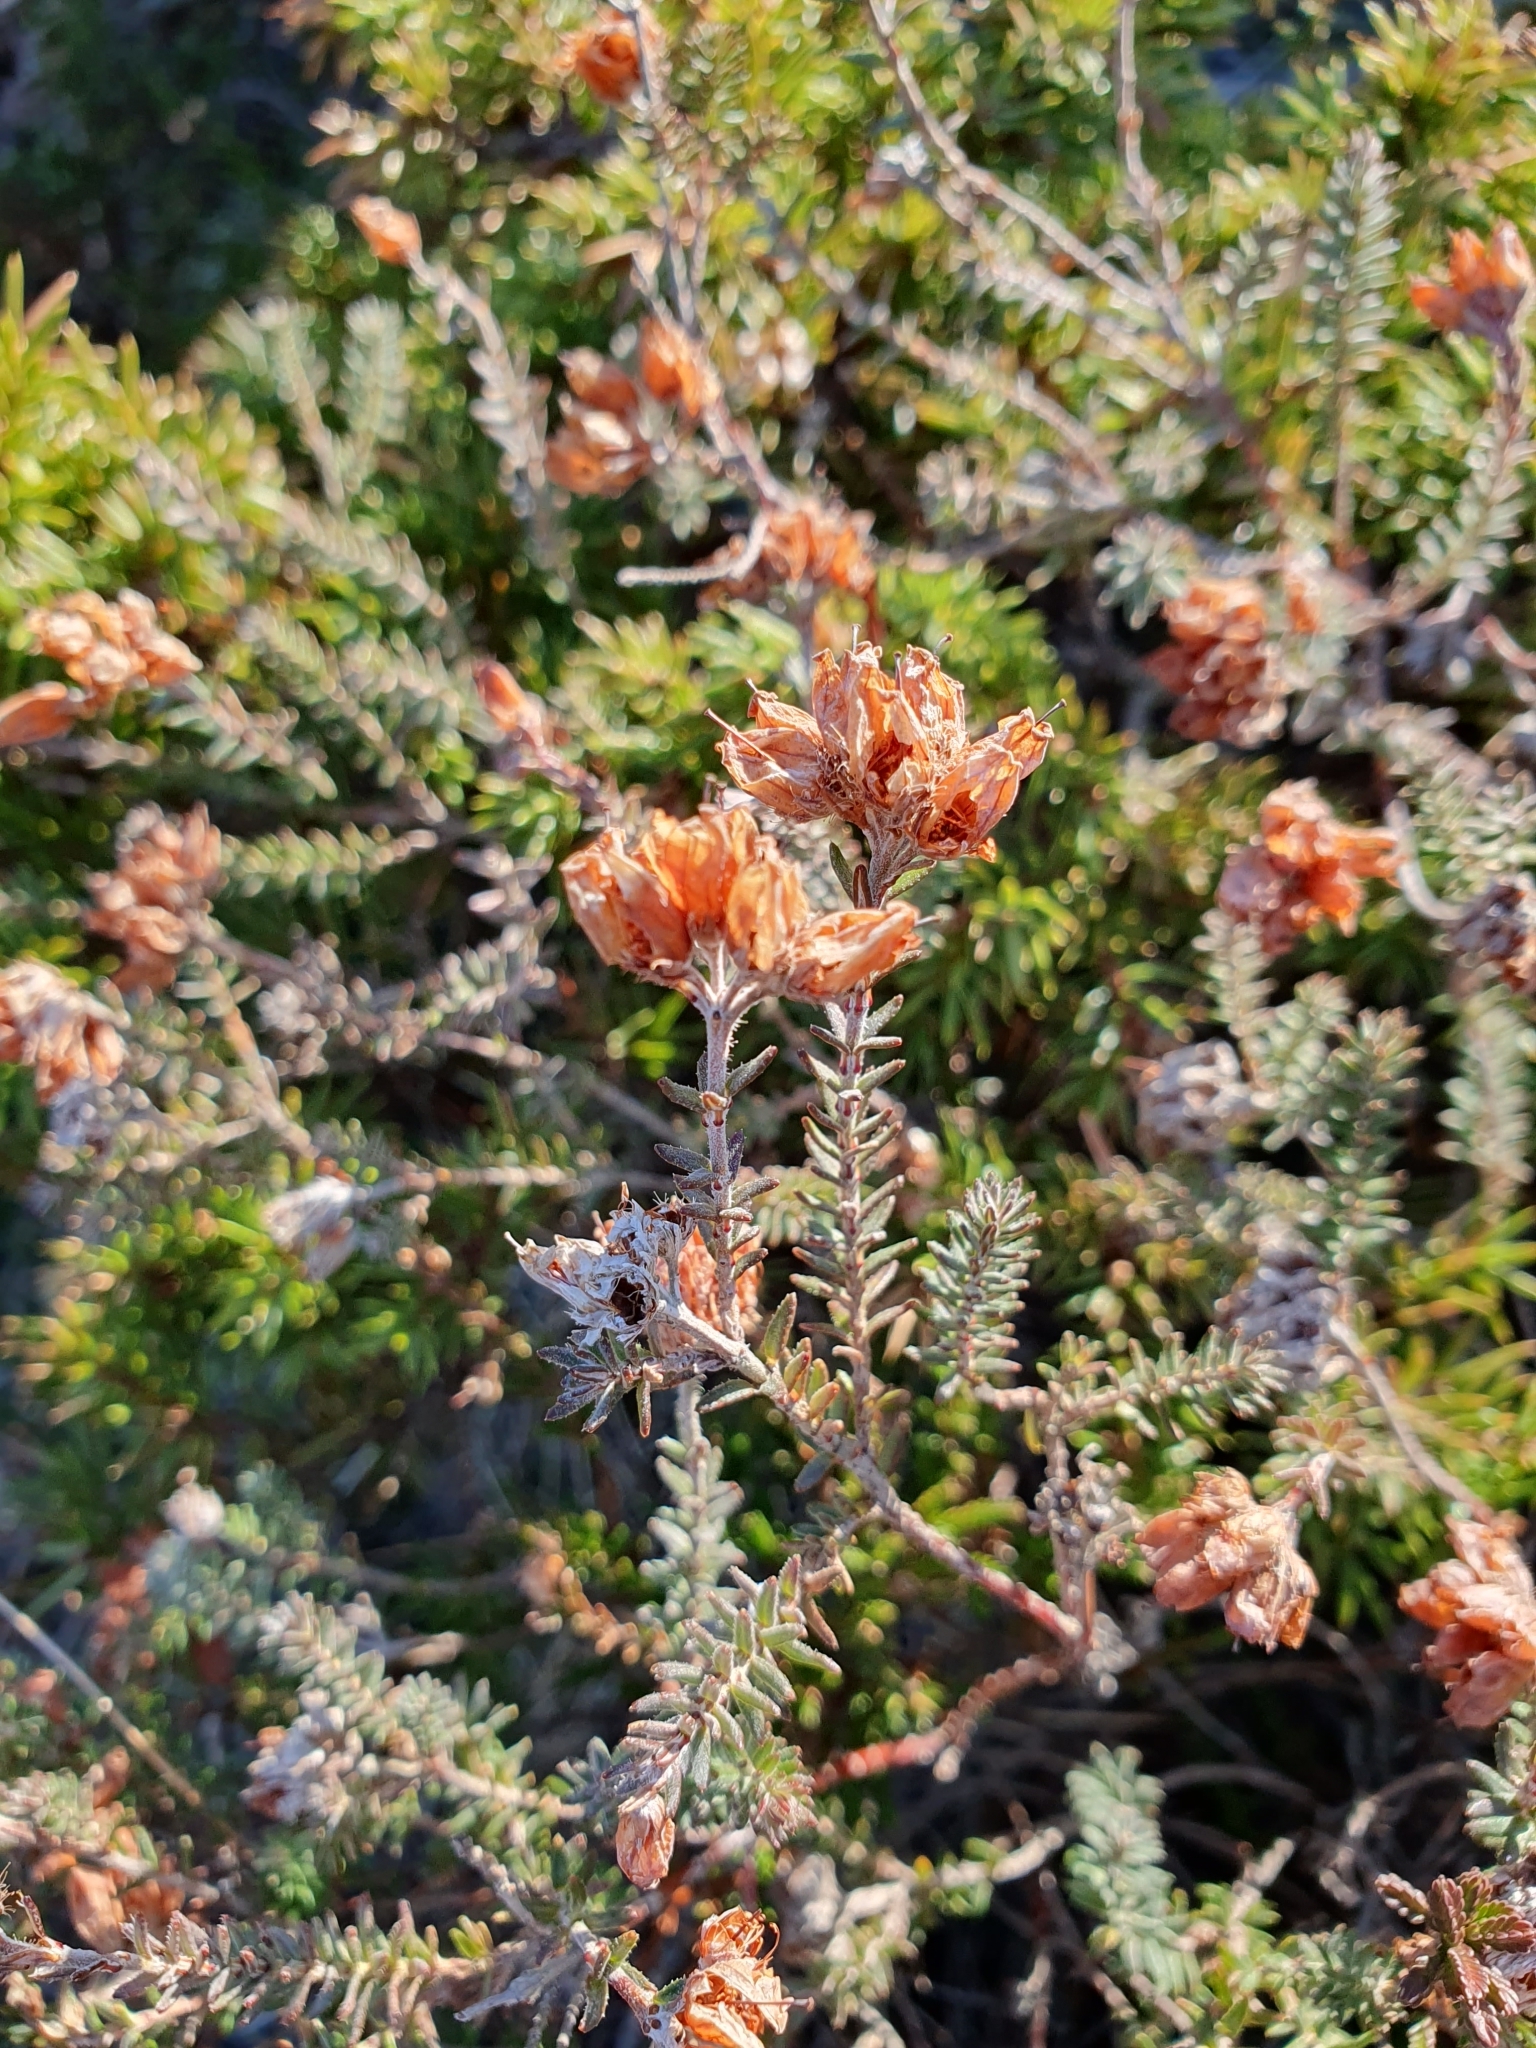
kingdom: Plantae
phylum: Tracheophyta
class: Magnoliopsida
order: Ericales
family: Ericaceae
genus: Erica
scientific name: Erica tetralix
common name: Cross-leaved heath
